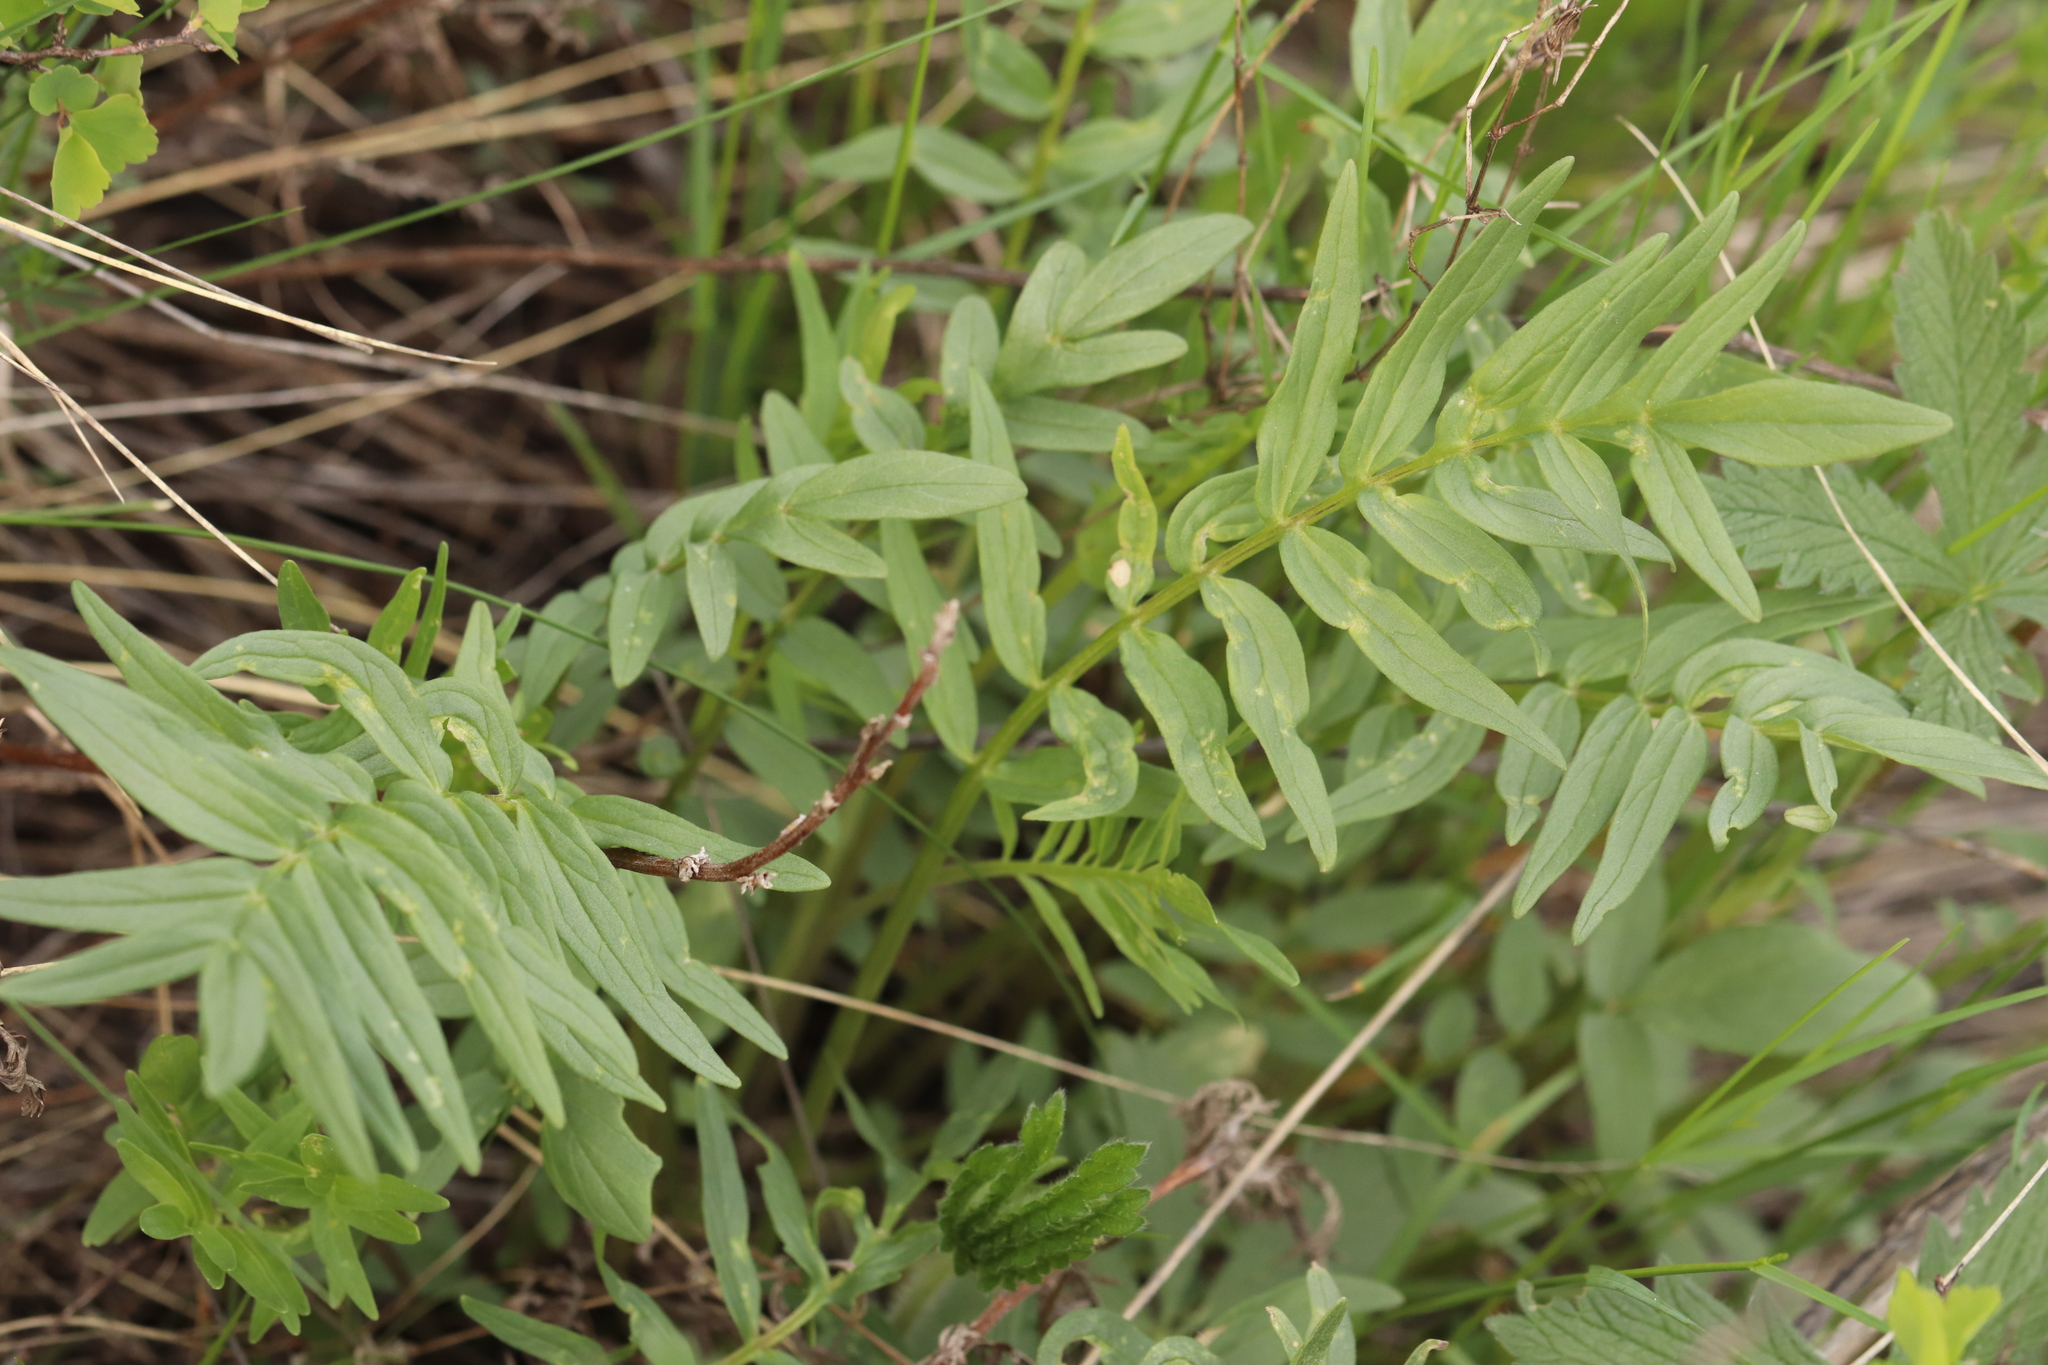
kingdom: Plantae
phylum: Tracheophyta
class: Magnoliopsida
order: Dipsacales
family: Caprifoliaceae
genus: Valeriana
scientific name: Valeriana rossica
